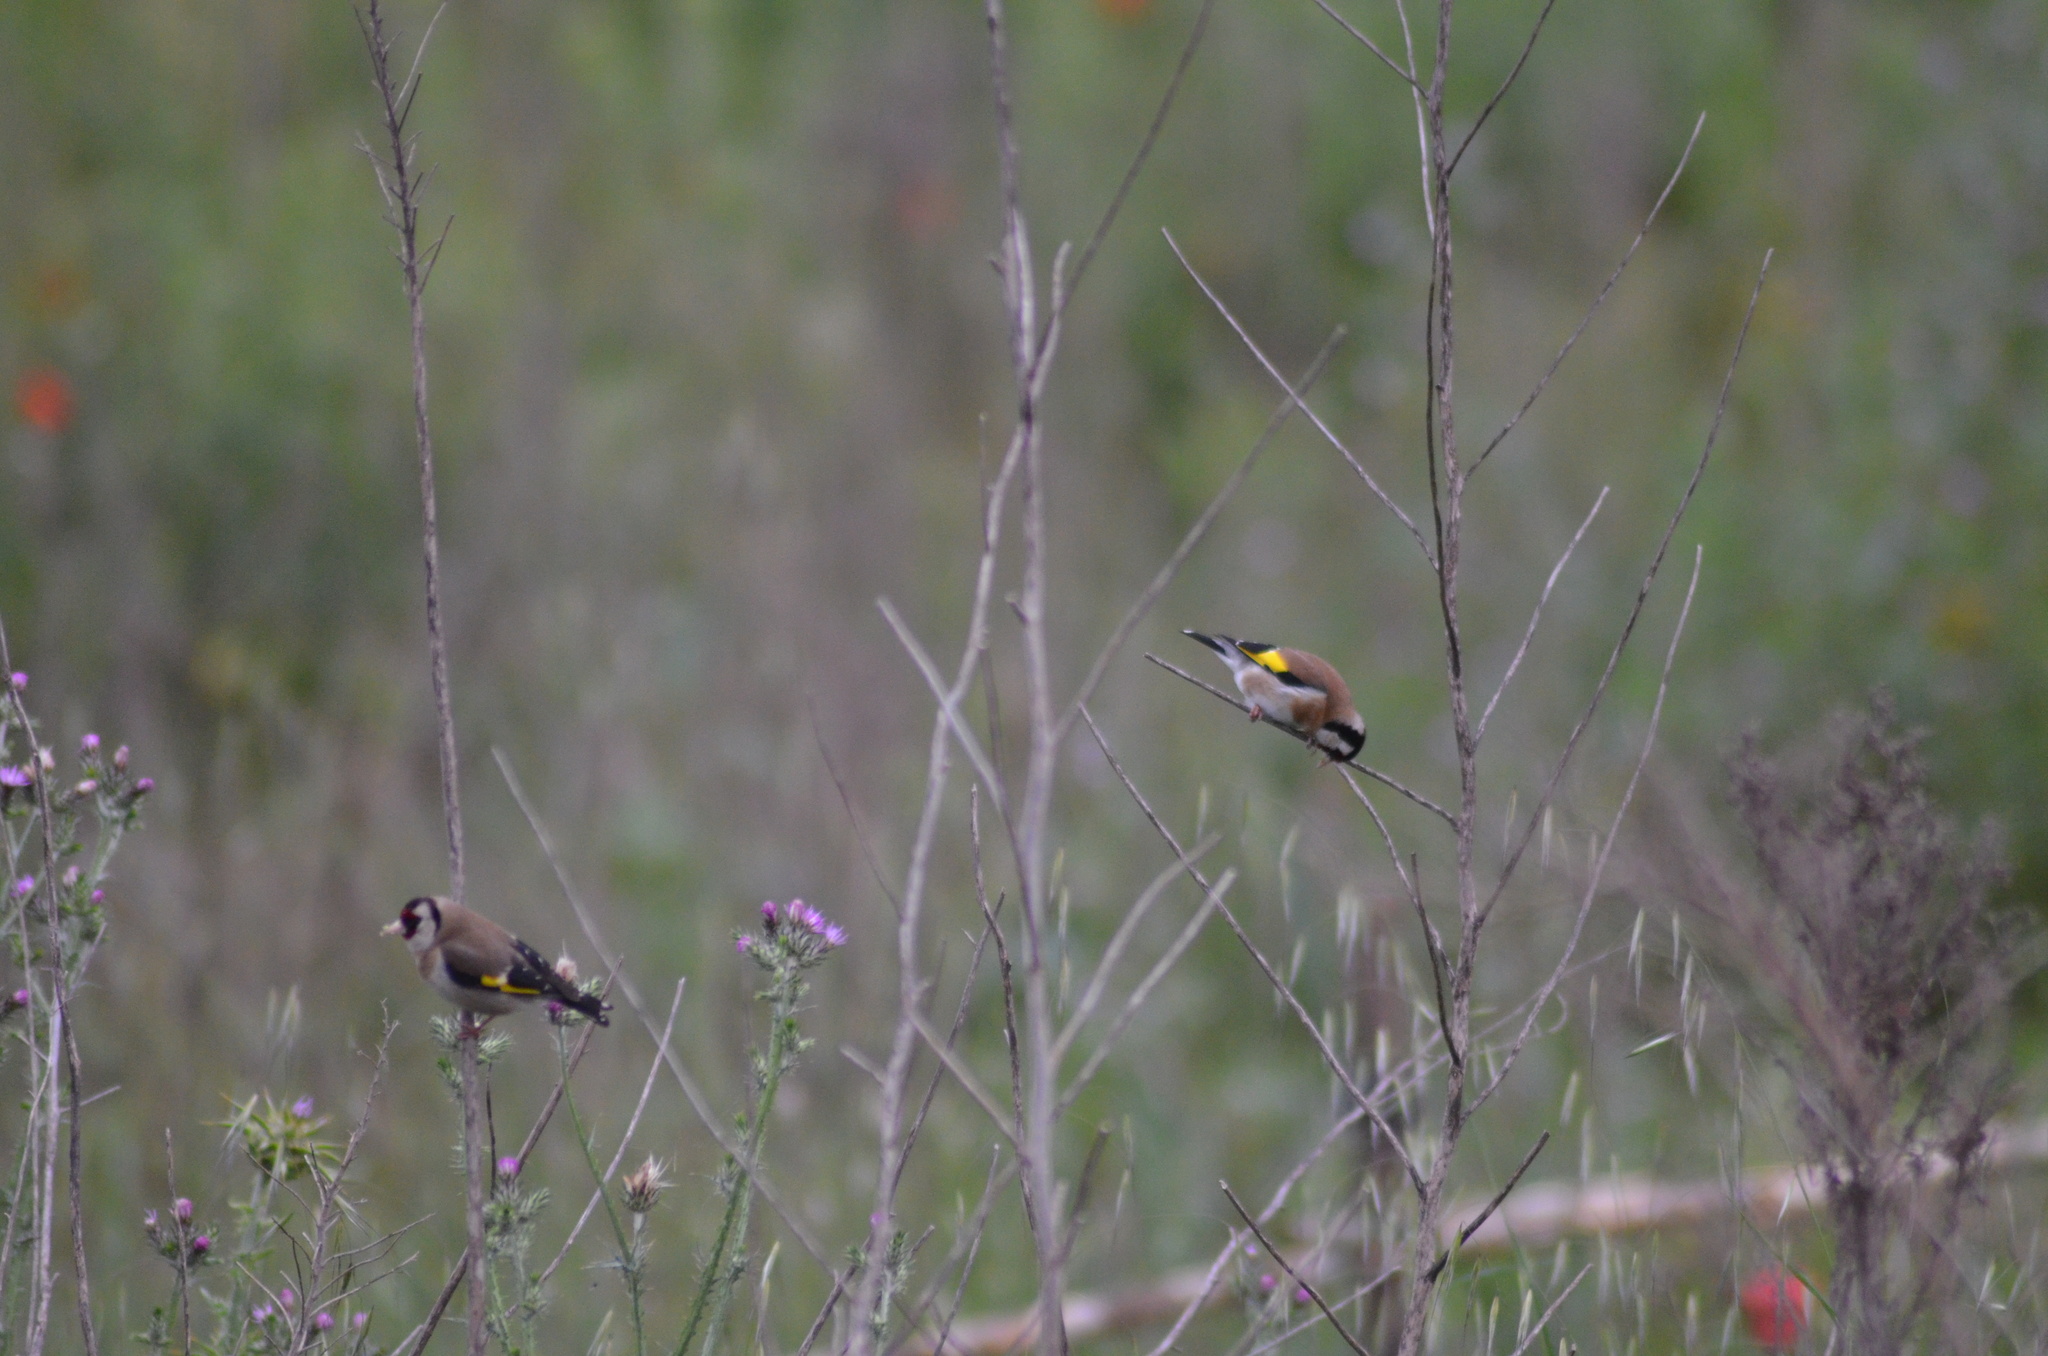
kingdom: Animalia
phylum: Chordata
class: Aves
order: Passeriformes
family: Fringillidae
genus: Carduelis
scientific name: Carduelis carduelis
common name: European goldfinch
